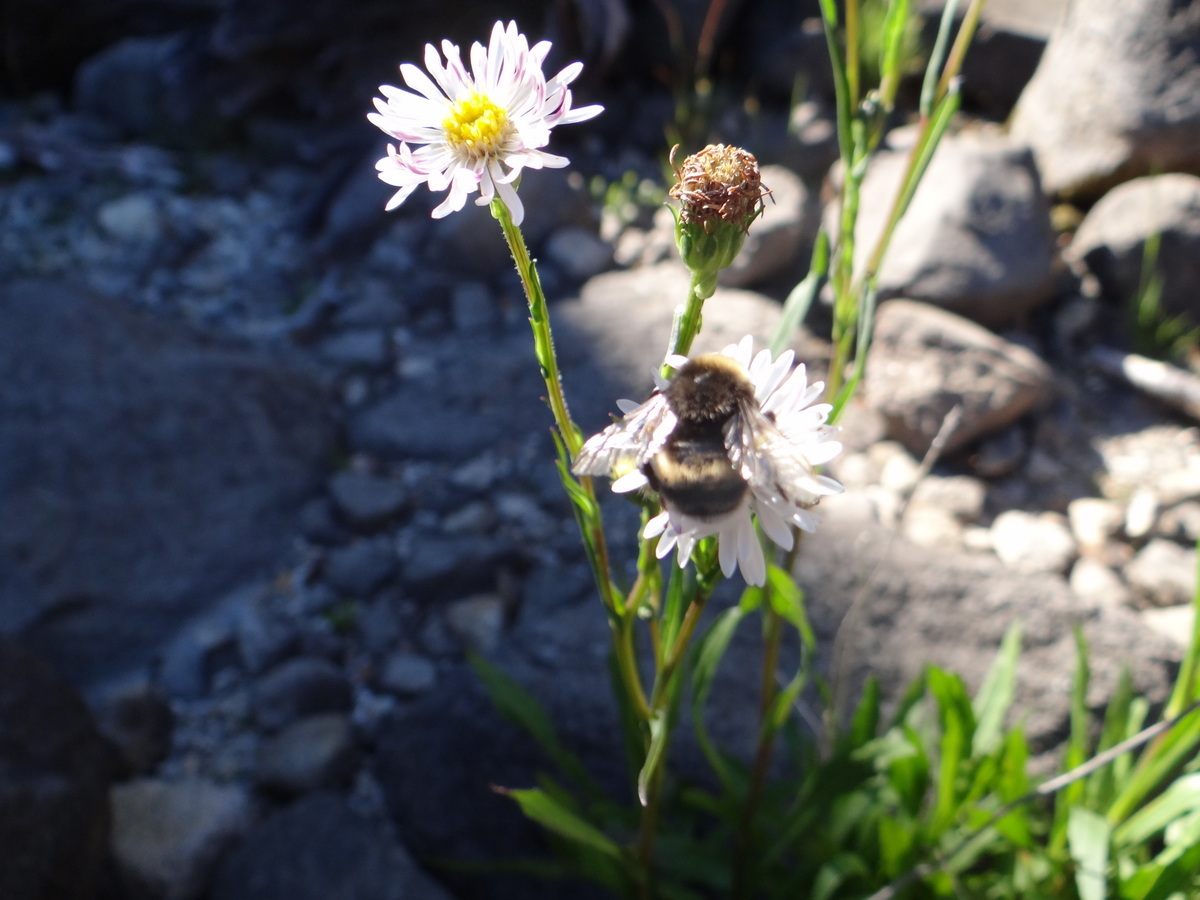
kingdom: Animalia
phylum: Arthropoda
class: Insecta
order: Hymenoptera
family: Apidae
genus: Bombus
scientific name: Bombus terrestris
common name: Buff-tailed bumblebee
